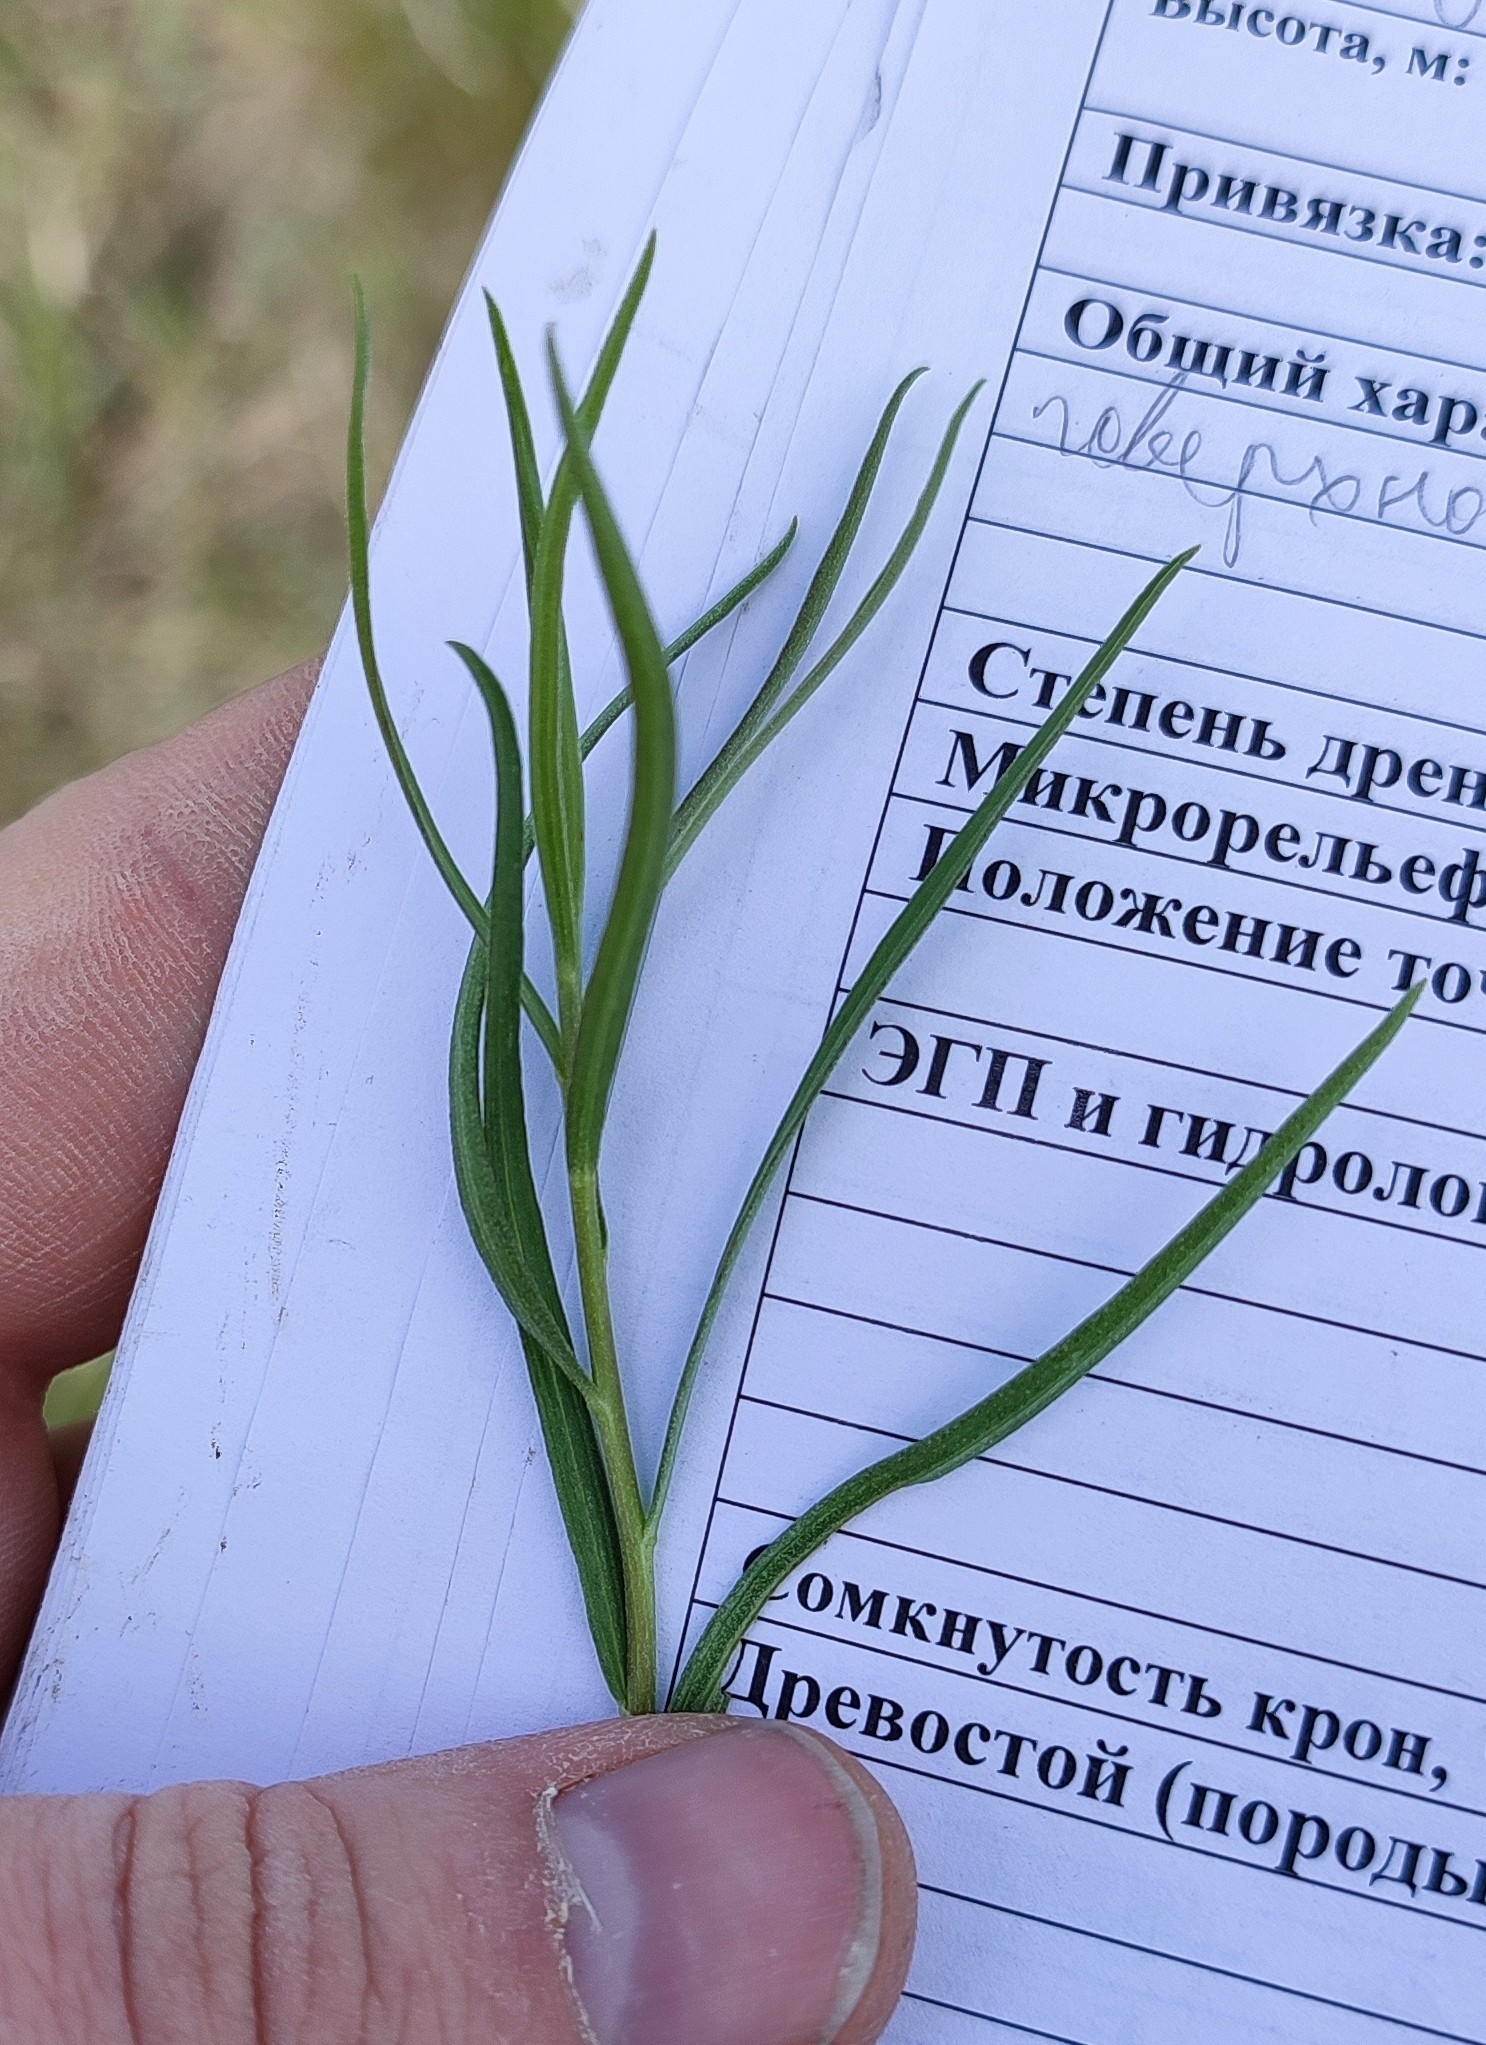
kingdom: Plantae
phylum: Tracheophyta
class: Magnoliopsida
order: Asterales
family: Asteraceae
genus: Artemisia
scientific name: Artemisia dracunculus
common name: Tarragon
